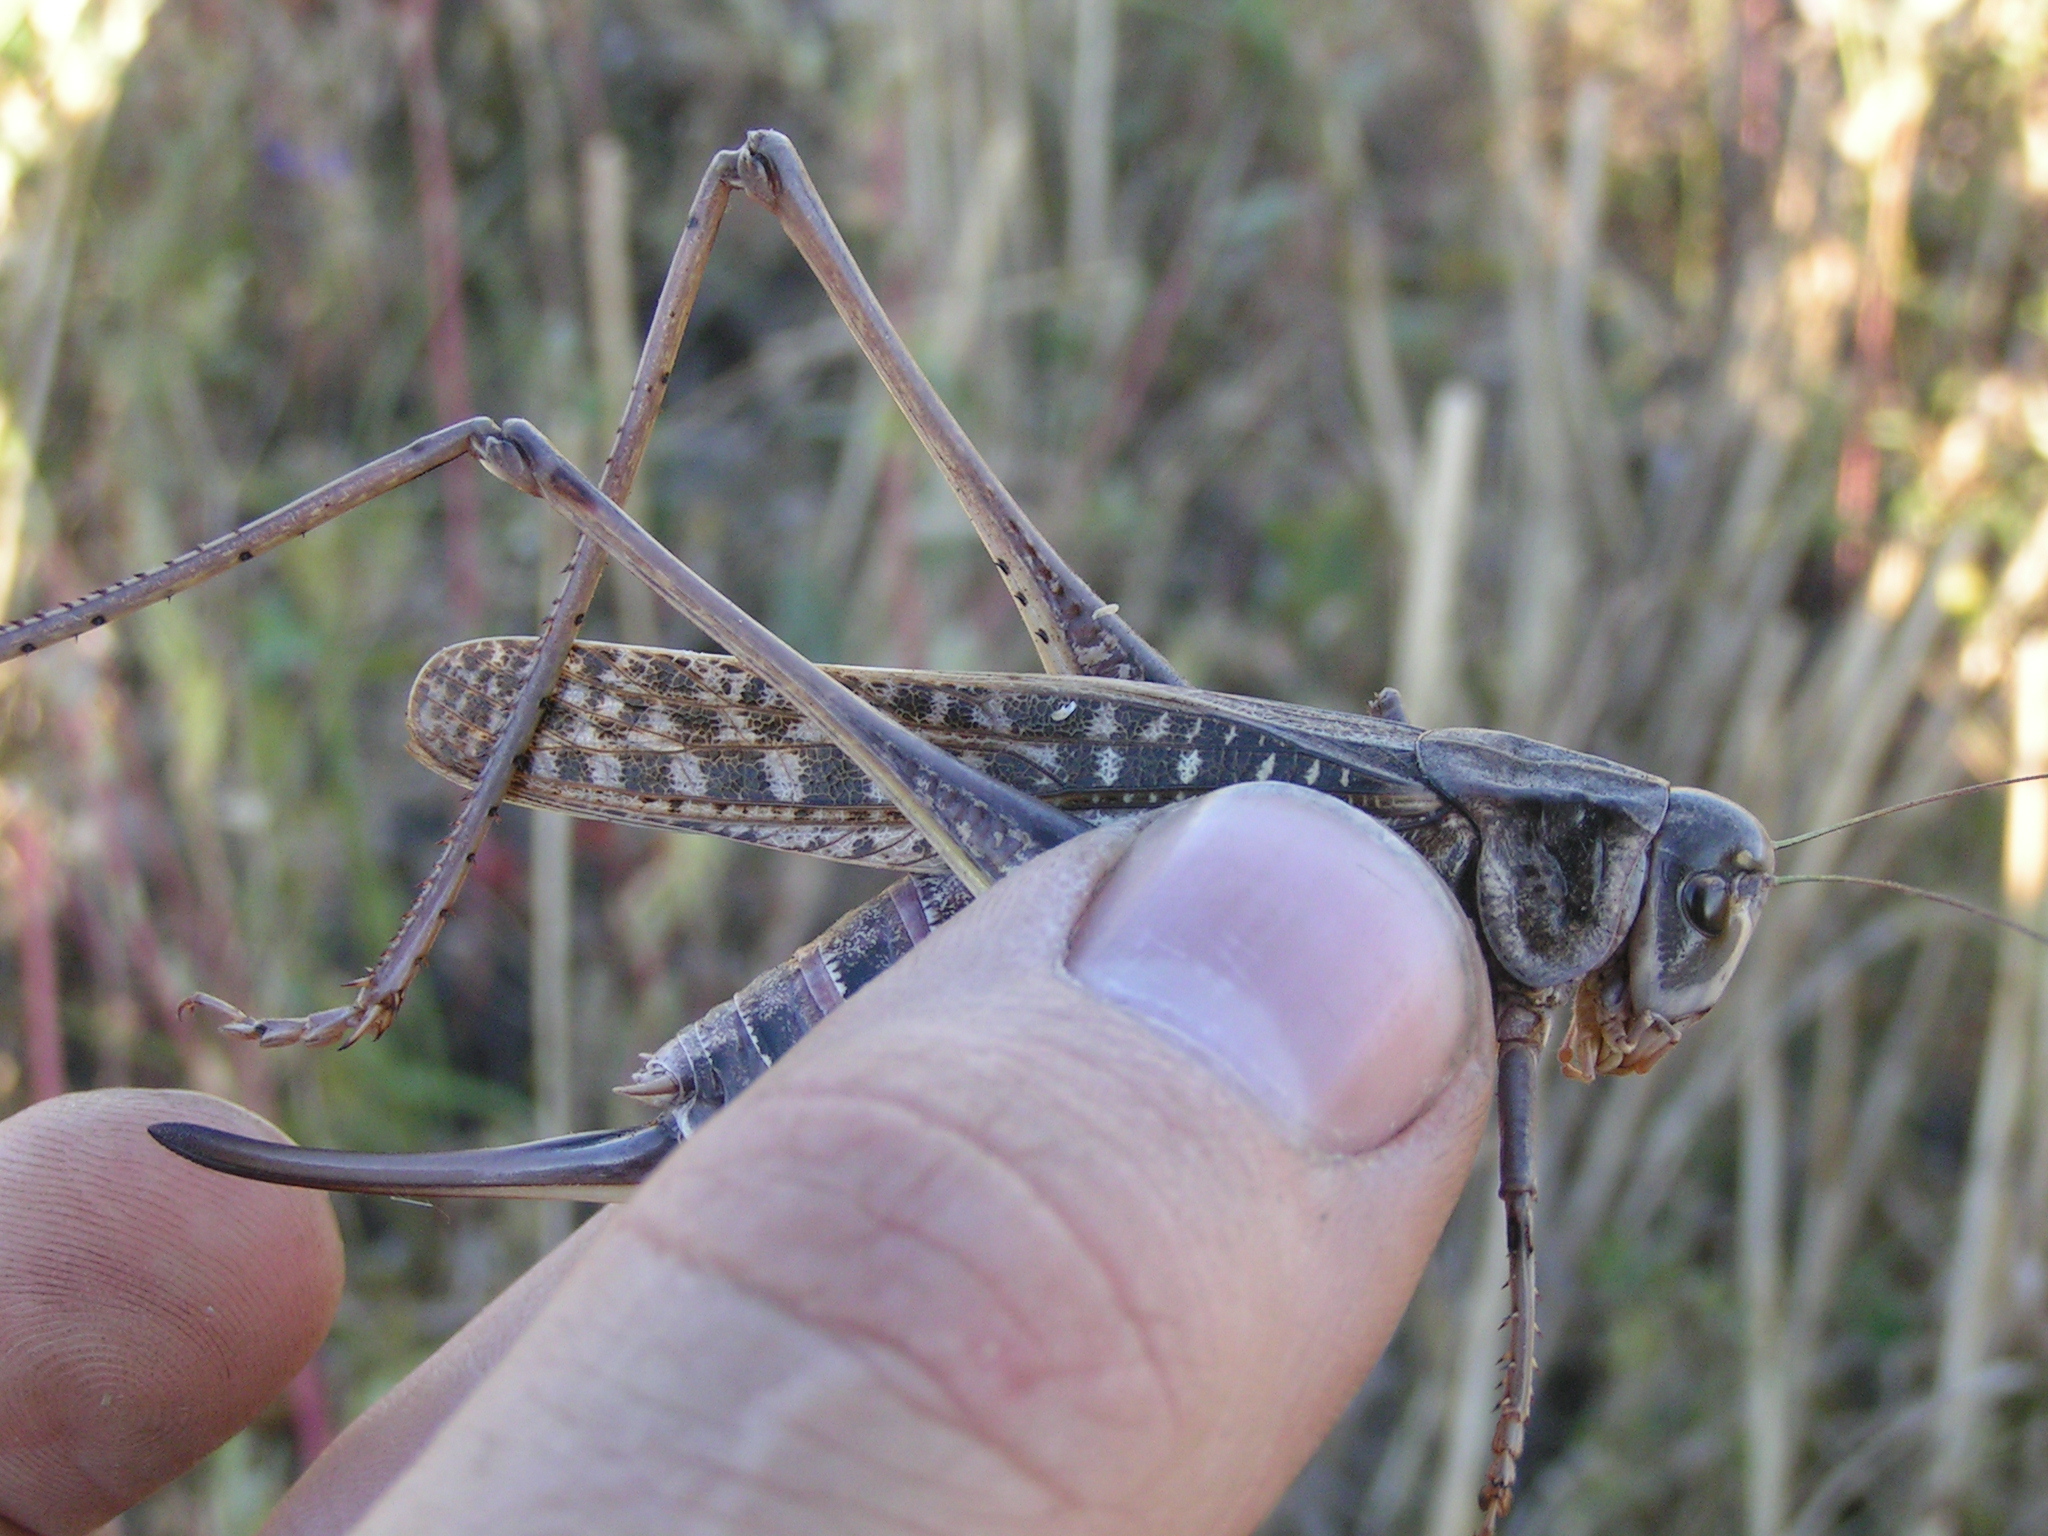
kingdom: Animalia
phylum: Arthropoda
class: Insecta
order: Orthoptera
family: Tettigoniidae
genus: Decticus
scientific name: Decticus verrucivorus
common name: Wart-biter
